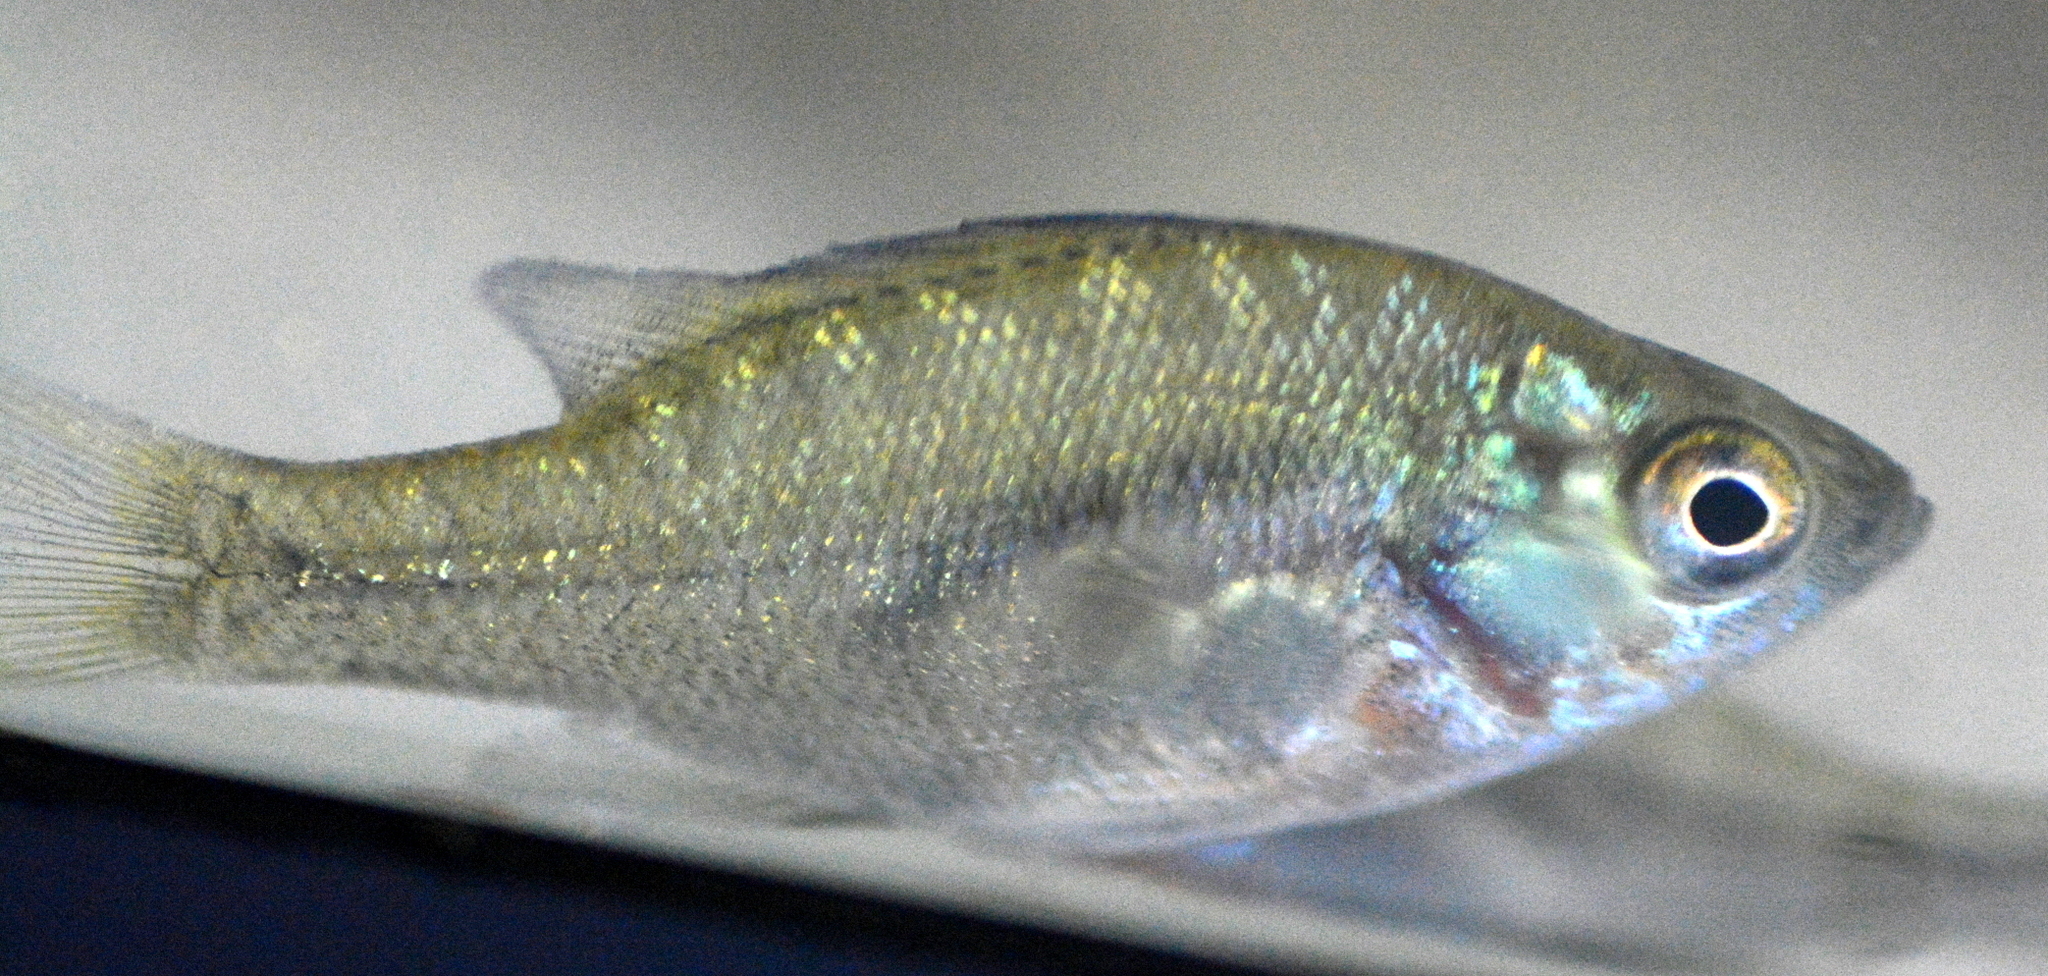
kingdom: Animalia
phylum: Chordata
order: Perciformes
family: Centrarchidae
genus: Lepomis
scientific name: Lepomis macrochirus
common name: Bluegill
